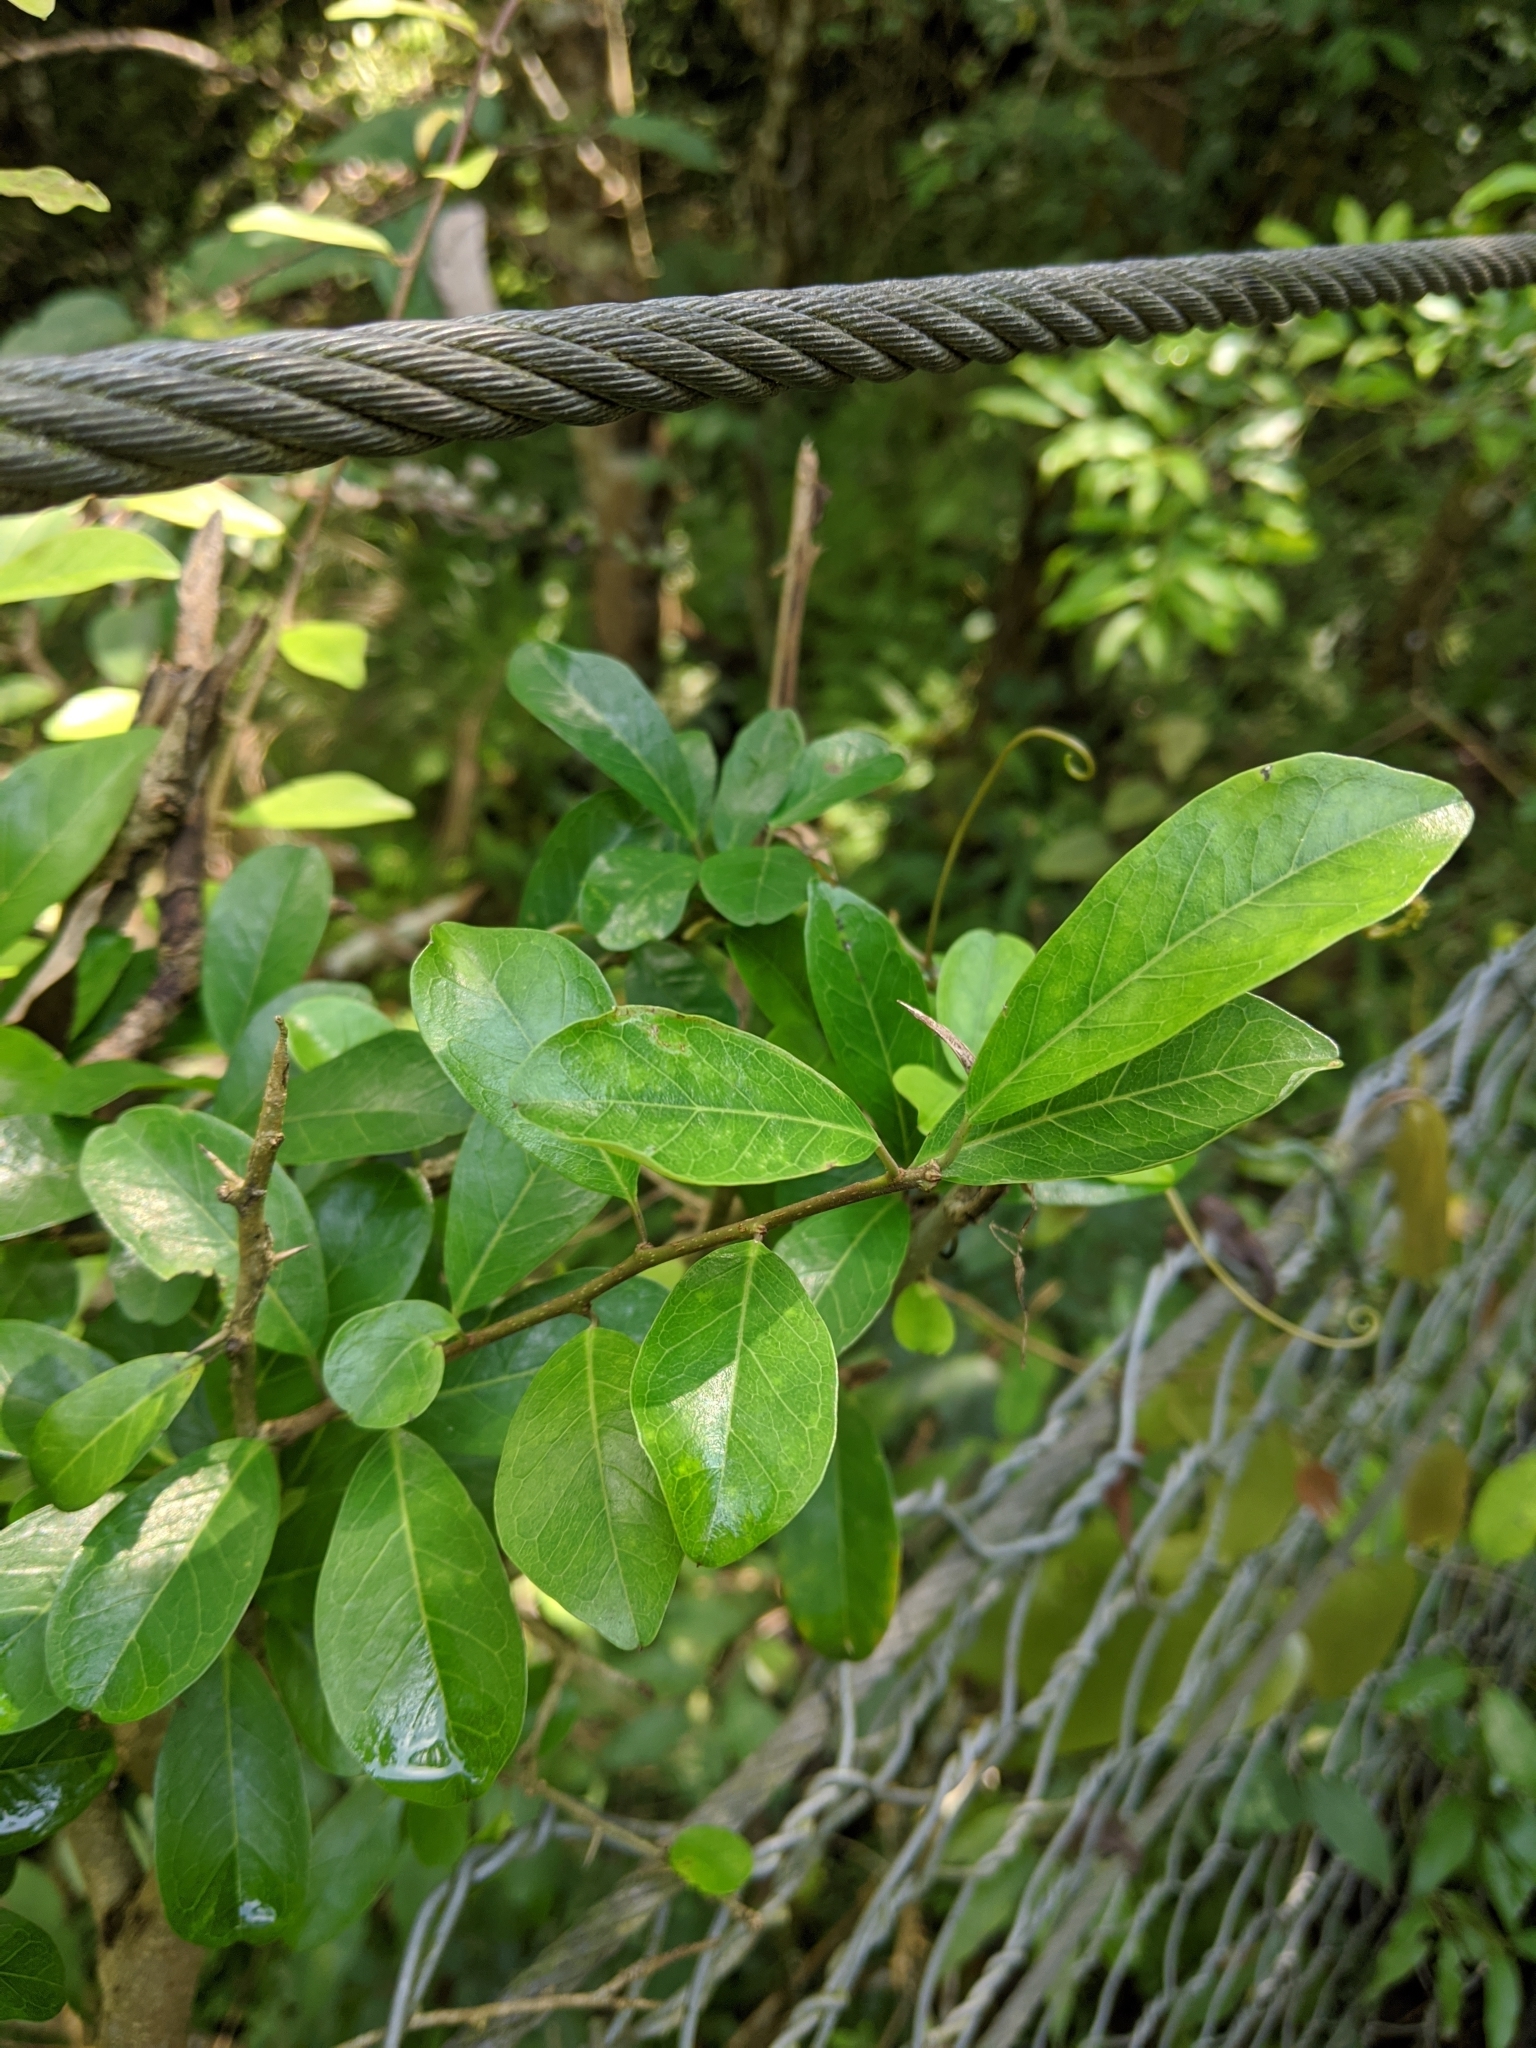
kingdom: Plantae
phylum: Tracheophyta
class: Magnoliopsida
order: Rosales
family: Moraceae
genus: Maclura
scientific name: Maclura cochinchinensis
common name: Cockspurthorn
